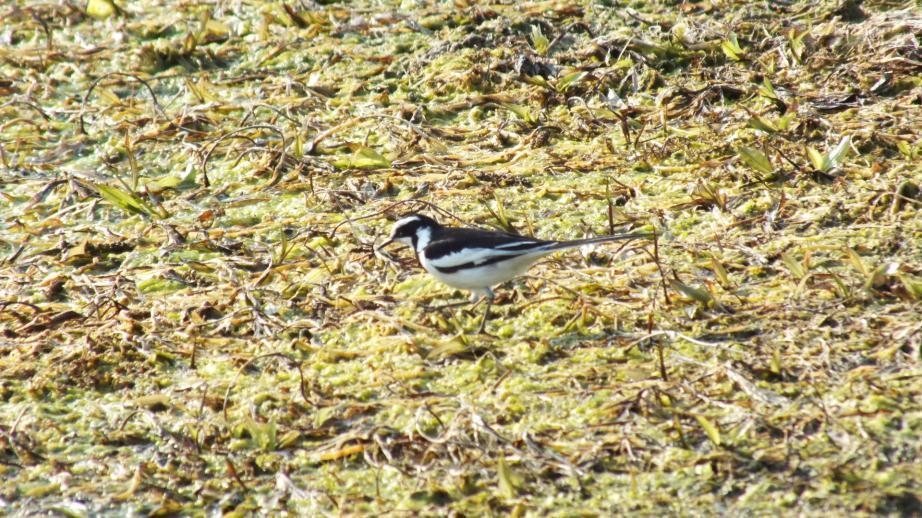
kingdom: Animalia
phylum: Chordata
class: Aves
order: Passeriformes
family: Motacillidae
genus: Motacilla
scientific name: Motacilla aguimp
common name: African pied wagtail
